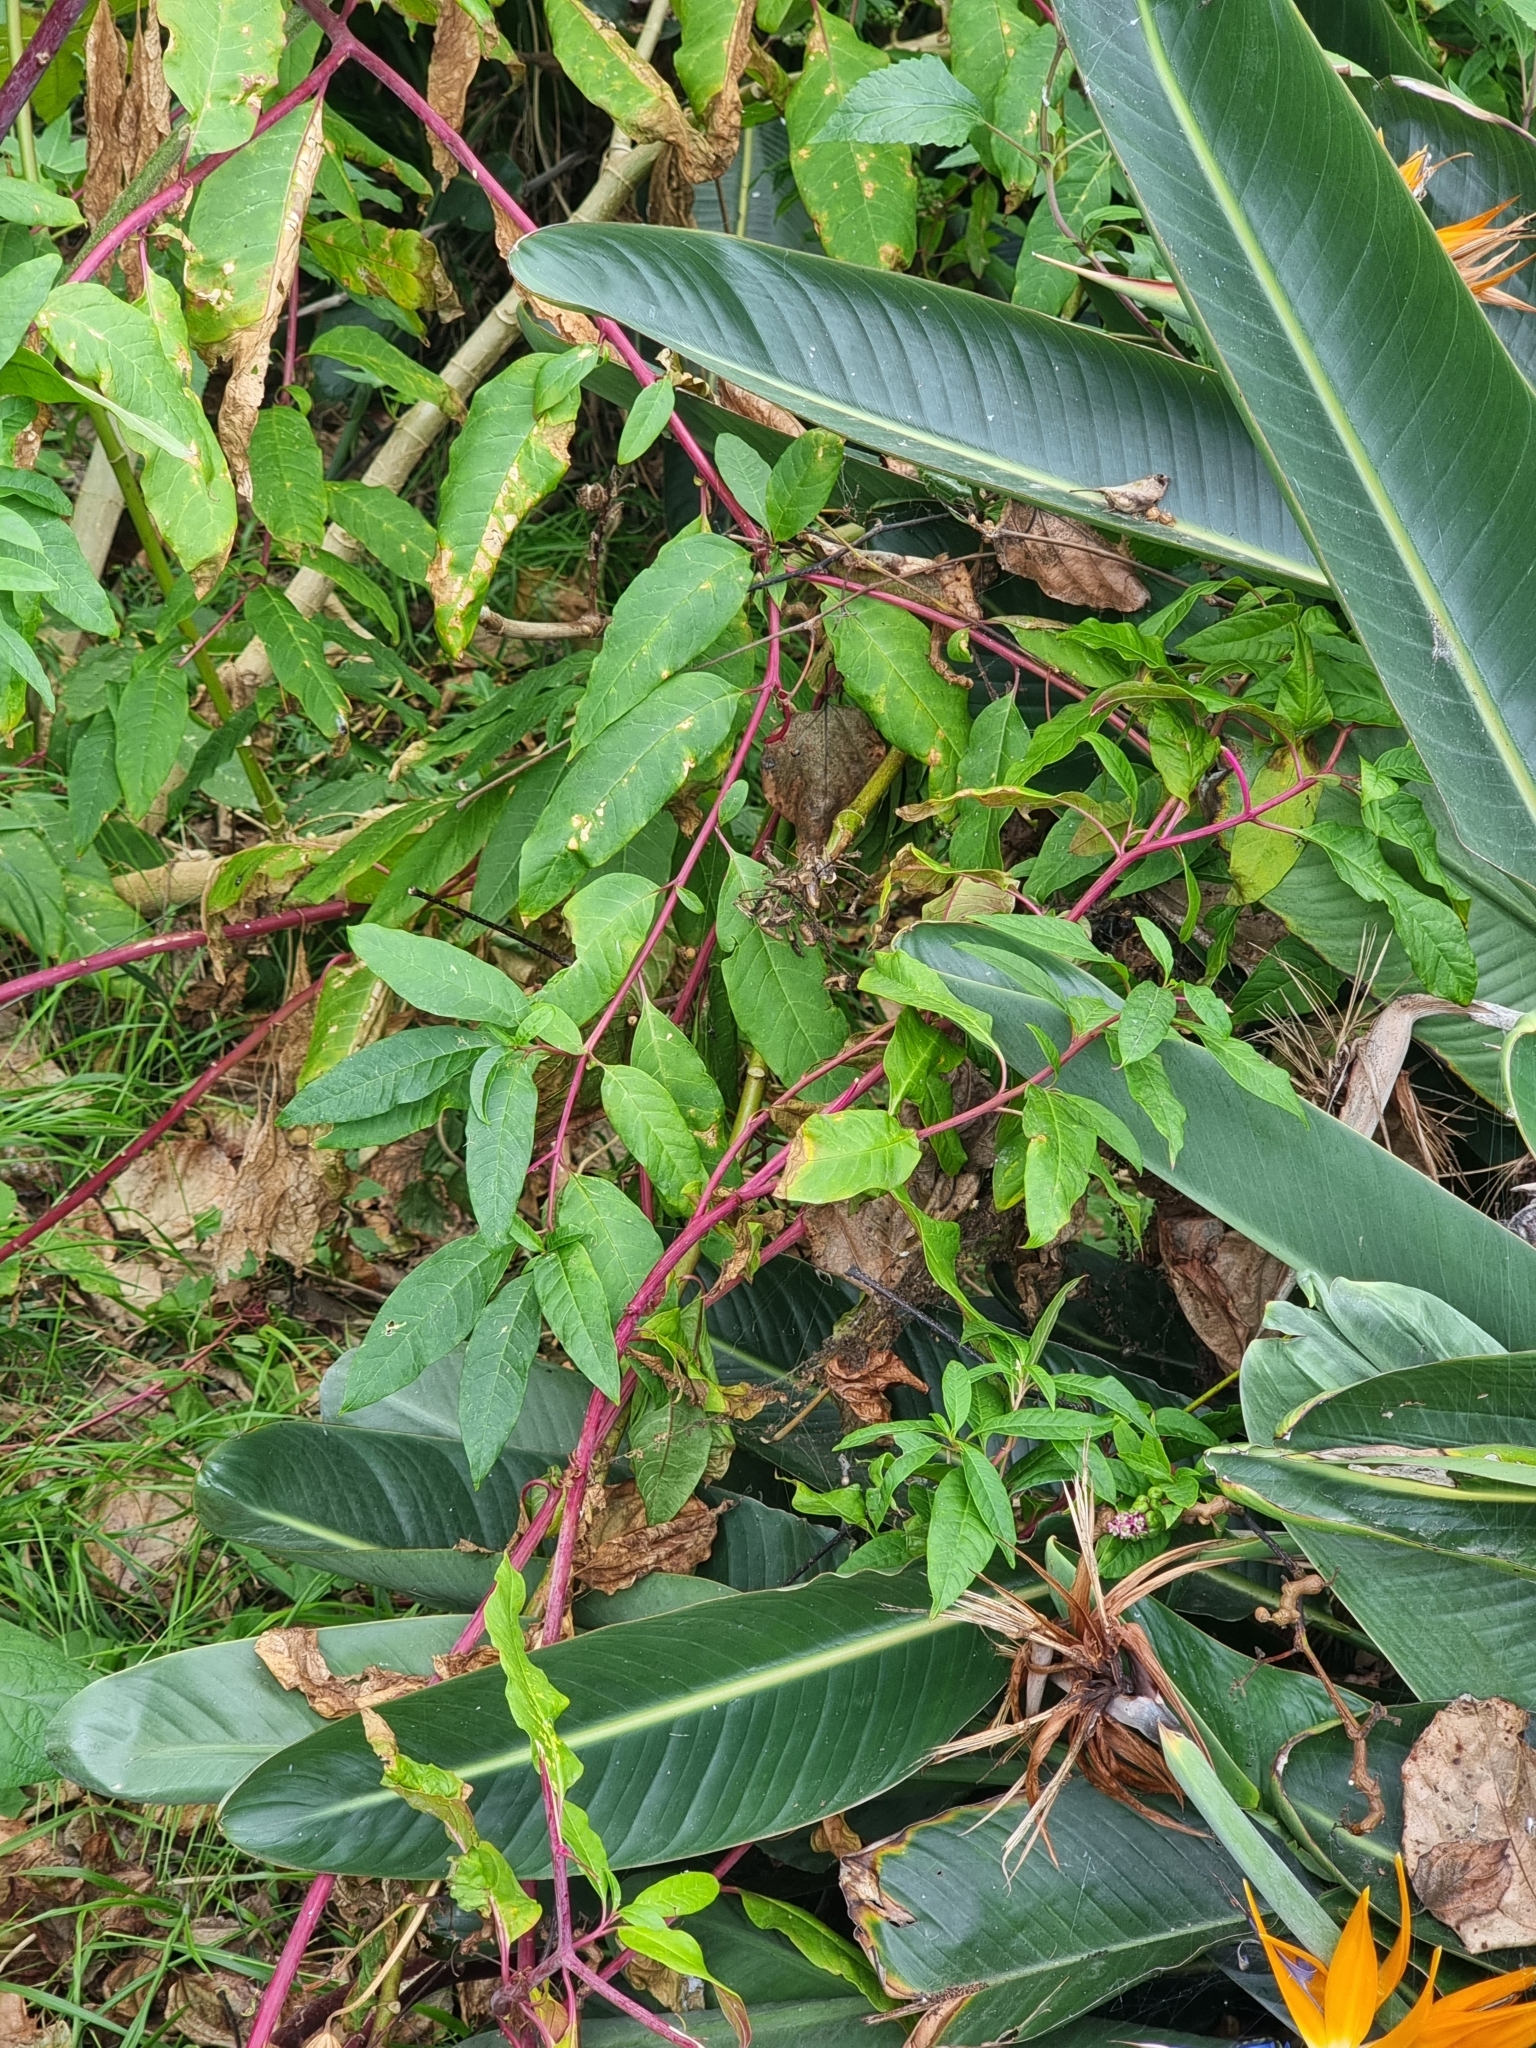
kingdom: Plantae
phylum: Tracheophyta
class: Magnoliopsida
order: Caryophyllales
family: Phytolaccaceae
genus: Phytolacca
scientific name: Phytolacca americana
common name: American pokeweed
